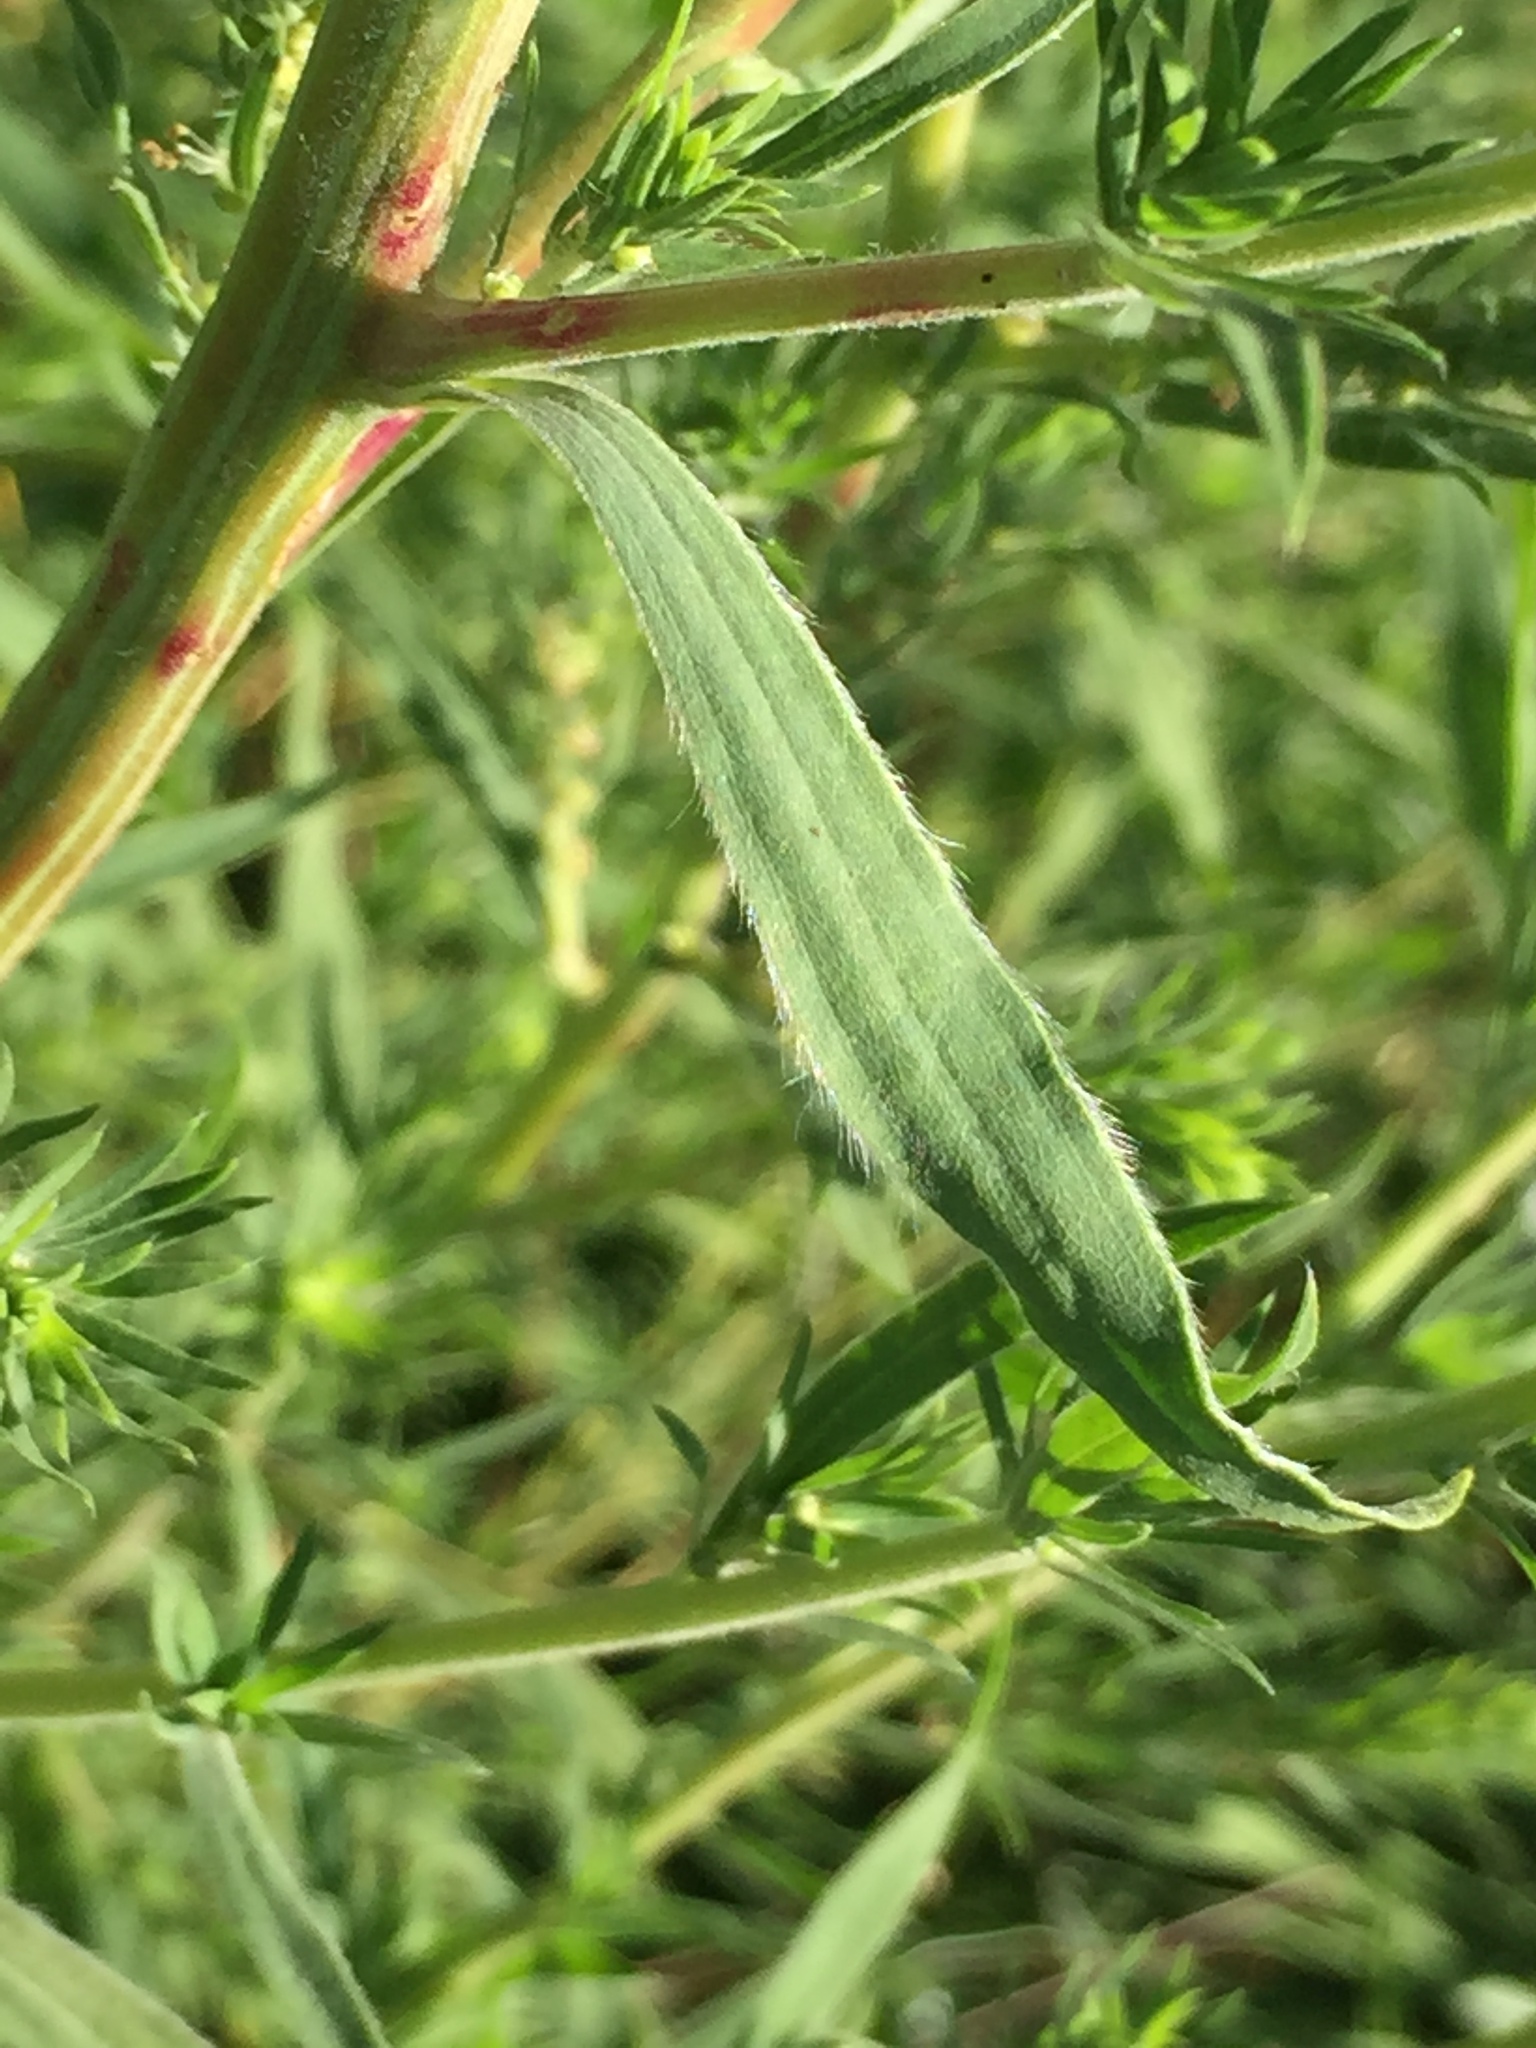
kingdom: Plantae
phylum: Tracheophyta
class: Magnoliopsida
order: Caryophyllales
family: Amaranthaceae
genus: Bassia
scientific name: Bassia scoparia
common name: Belvedere
